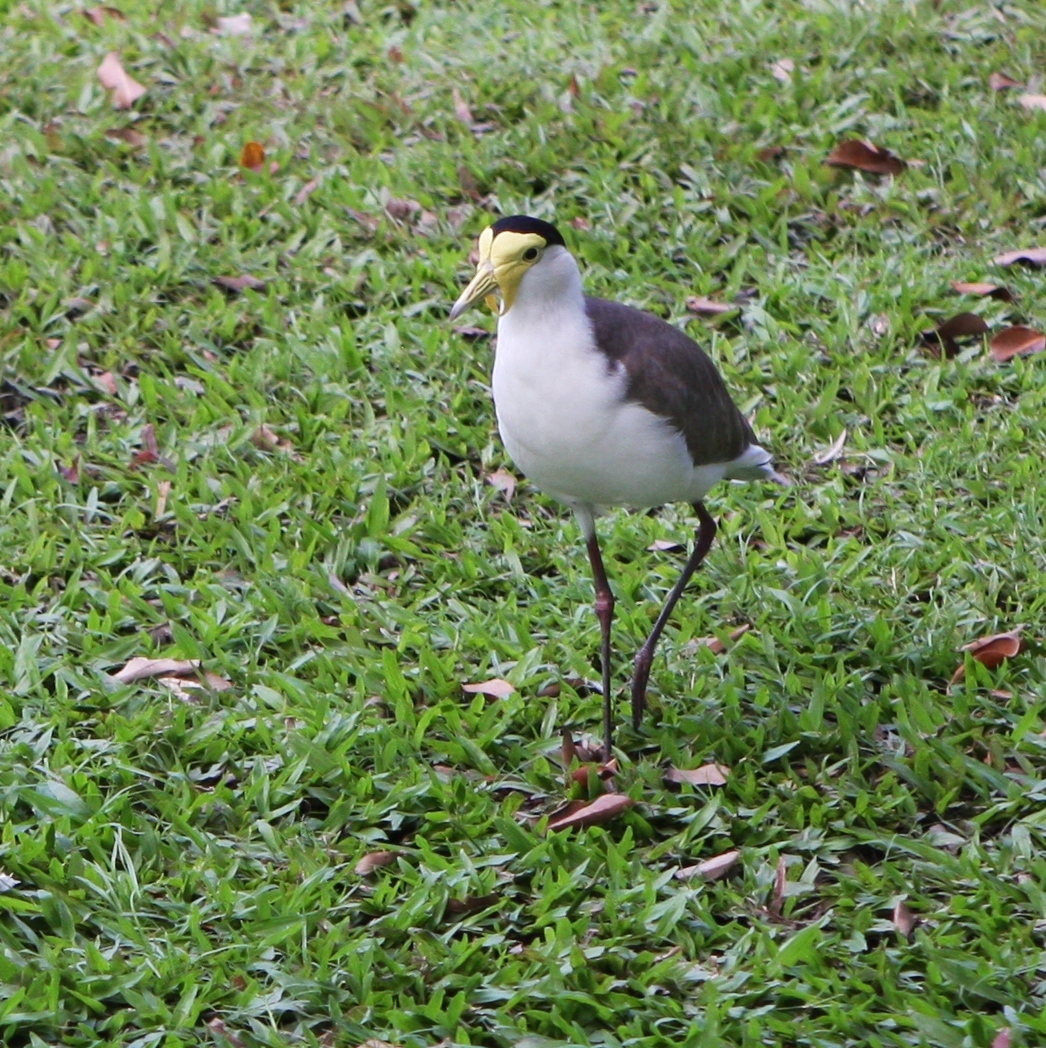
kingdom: Animalia
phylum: Chordata
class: Aves
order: Charadriiformes
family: Charadriidae
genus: Vanellus
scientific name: Vanellus miles
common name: Masked lapwing
